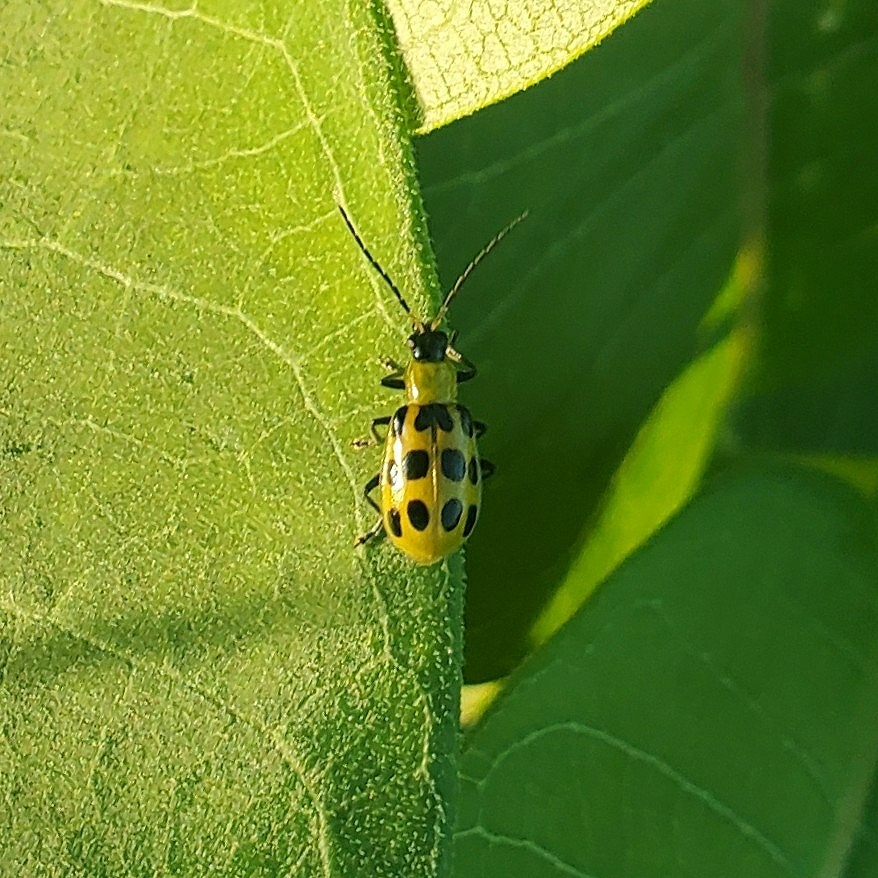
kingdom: Animalia
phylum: Arthropoda
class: Insecta
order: Coleoptera
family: Chrysomelidae
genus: Diabrotica
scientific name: Diabrotica undecimpunctata
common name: Spotted cucumber beetle
